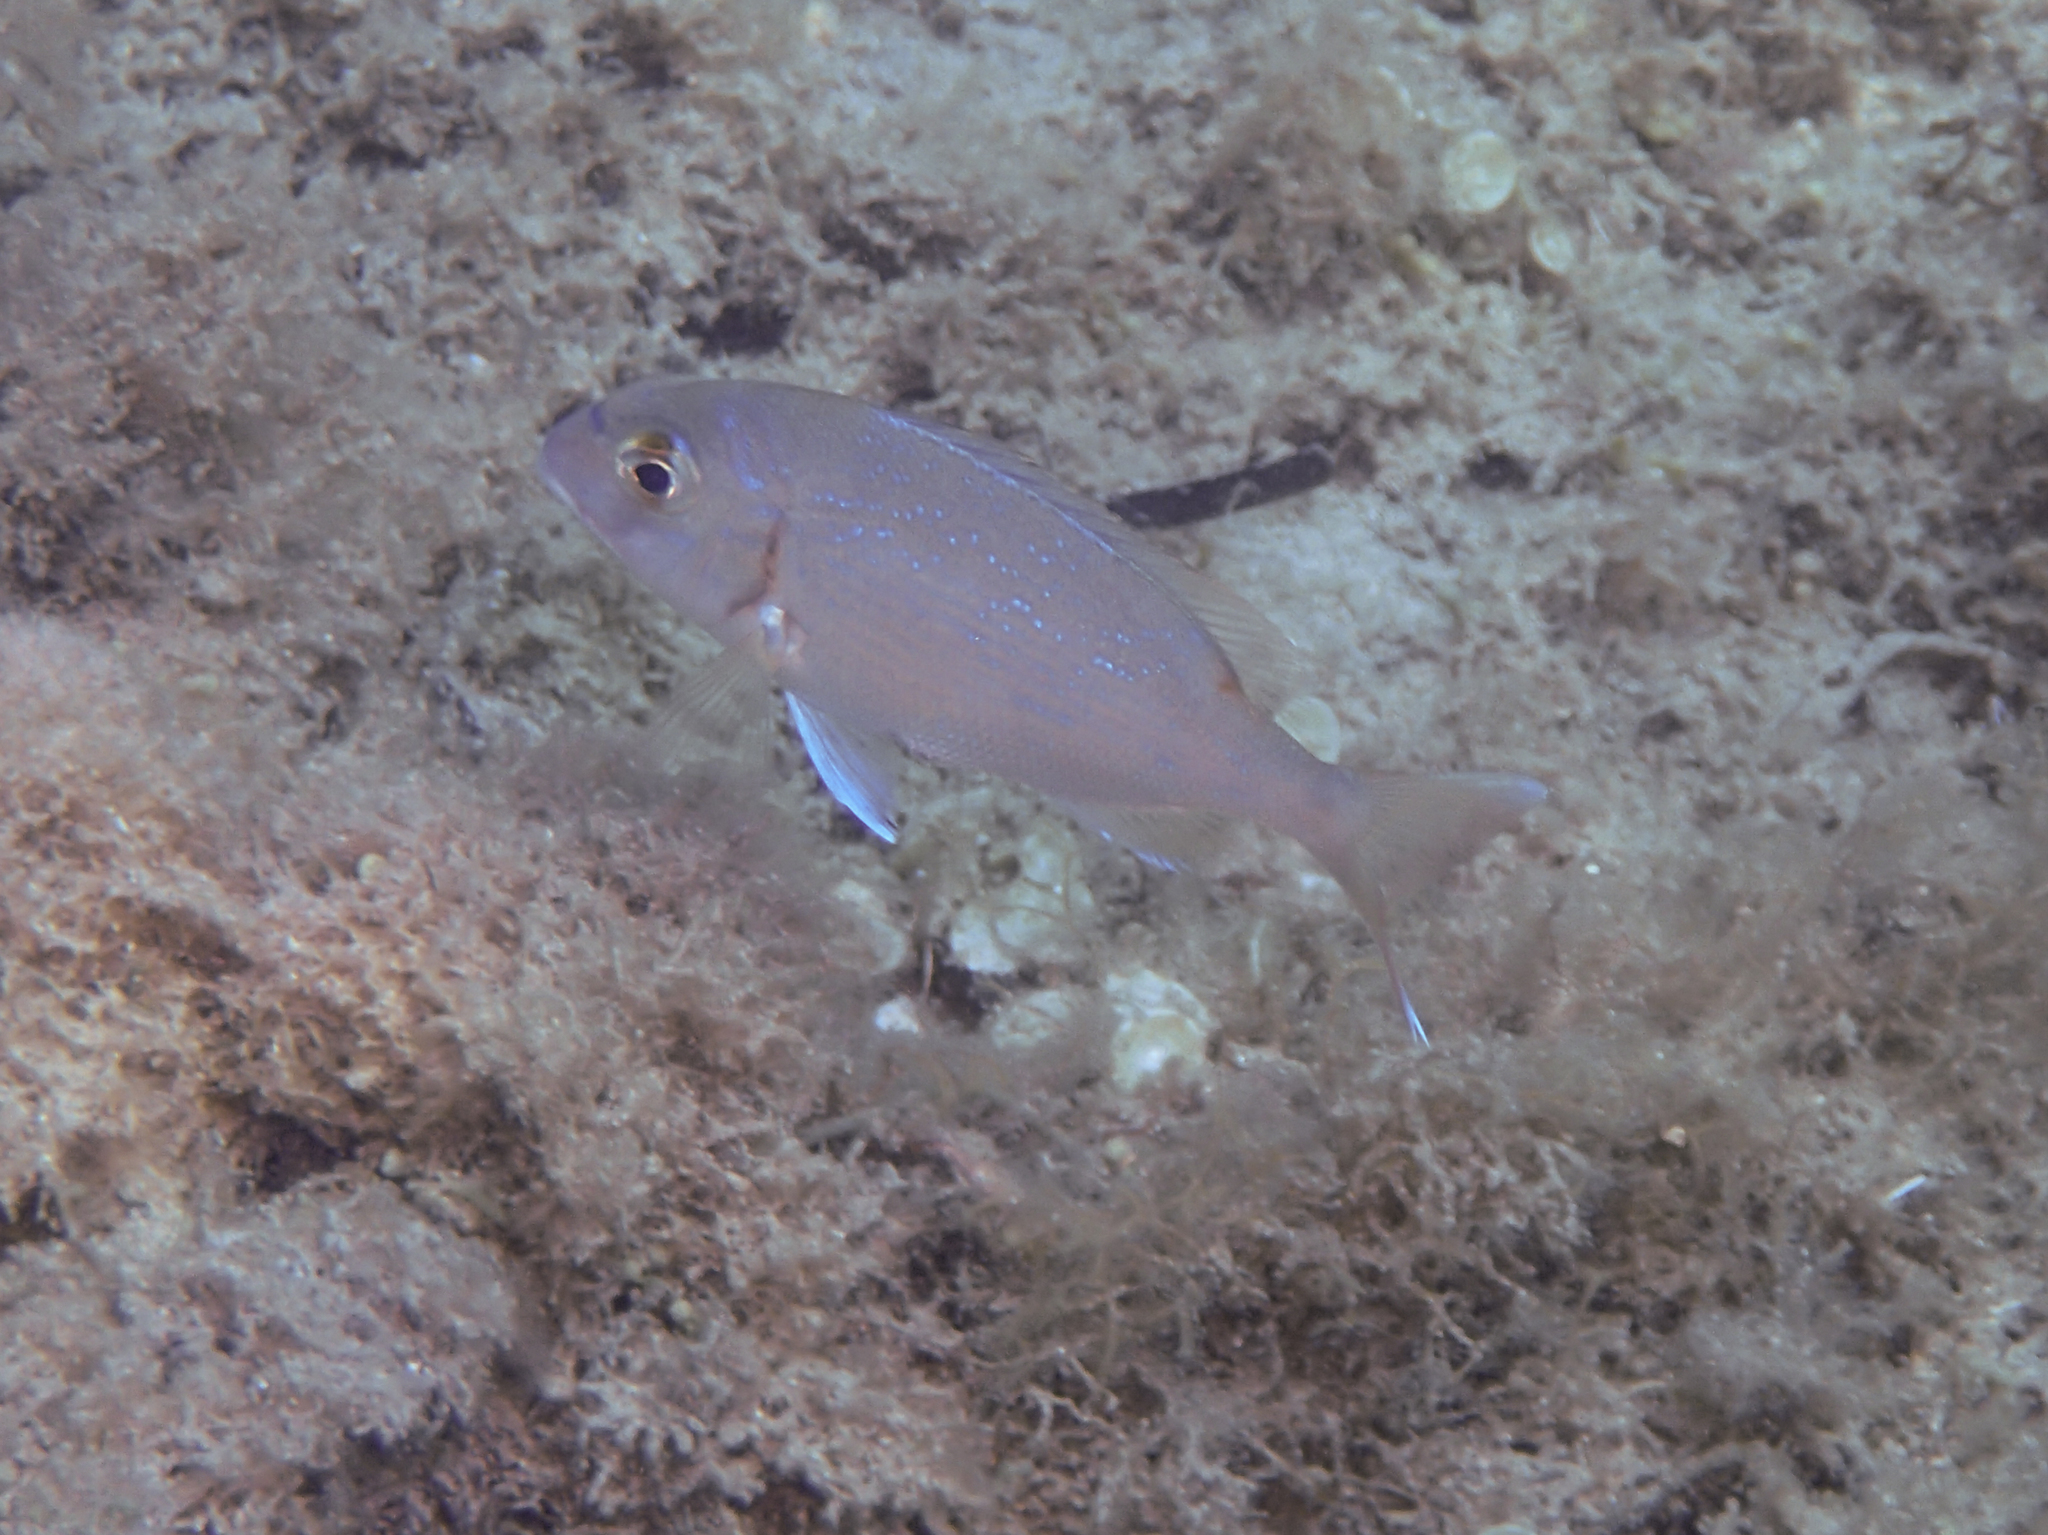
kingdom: Animalia
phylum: Chordata
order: Perciformes
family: Sparidae
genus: Pagrus
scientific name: Pagrus pagrus
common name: Red porgy
